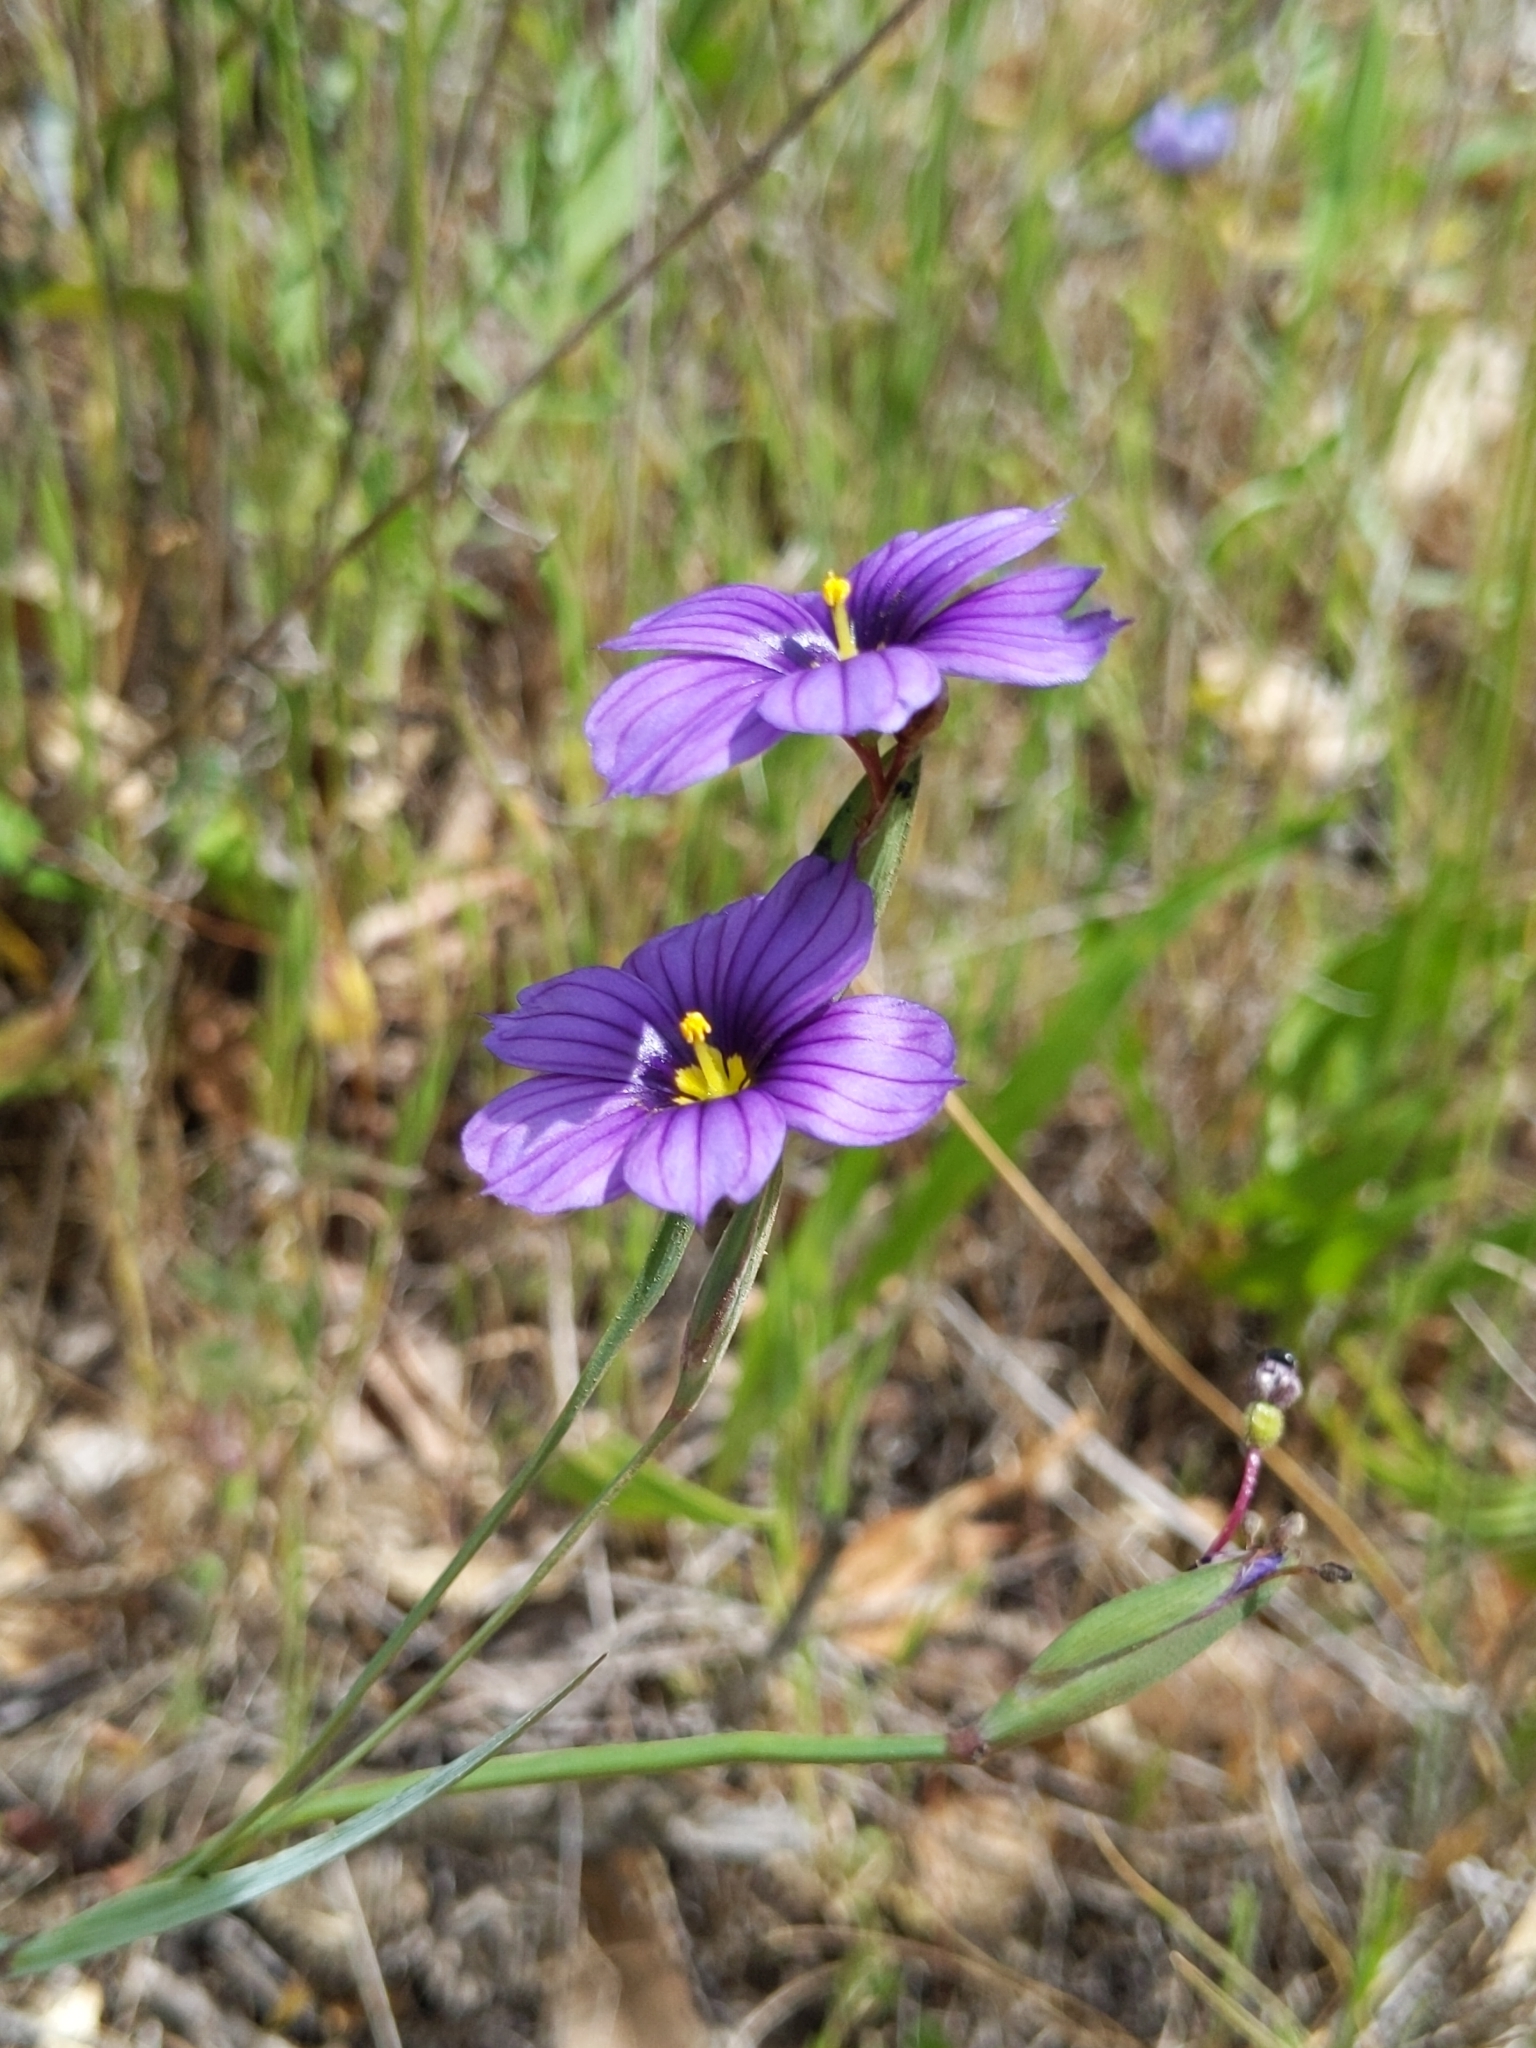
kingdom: Plantae
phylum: Tracheophyta
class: Liliopsida
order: Asparagales
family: Iridaceae
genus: Sisyrinchium
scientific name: Sisyrinchium bellum
